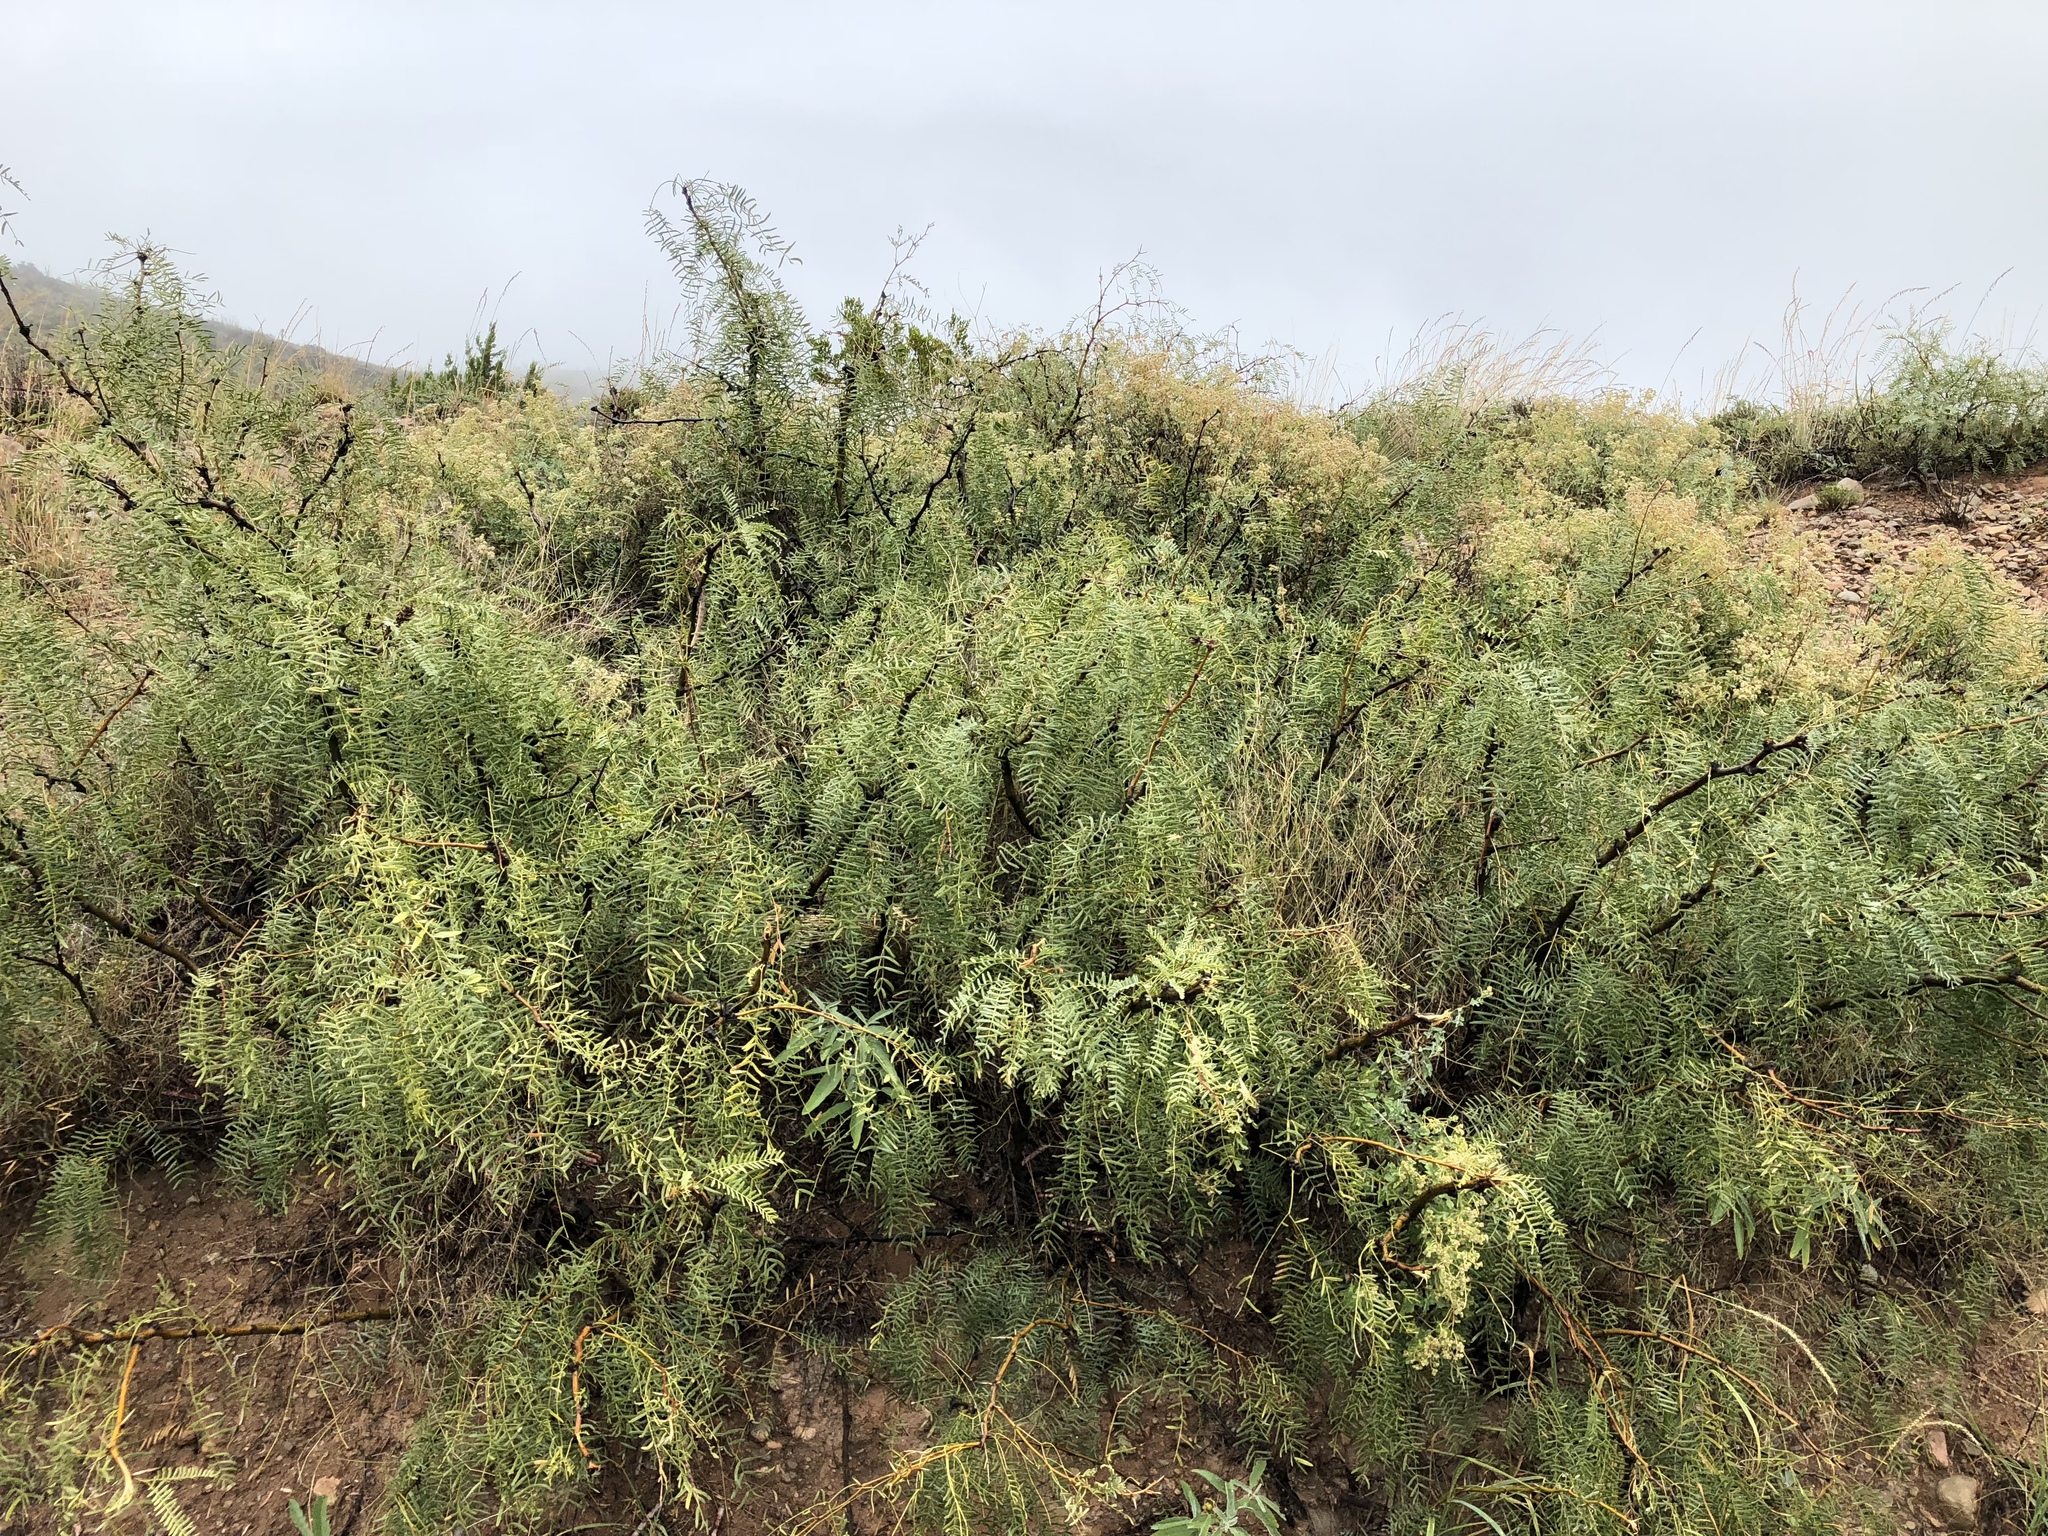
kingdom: Plantae
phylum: Tracheophyta
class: Magnoliopsida
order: Fabales
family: Fabaceae
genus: Prosopis
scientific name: Prosopis glandulosa
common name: Honey mesquite
